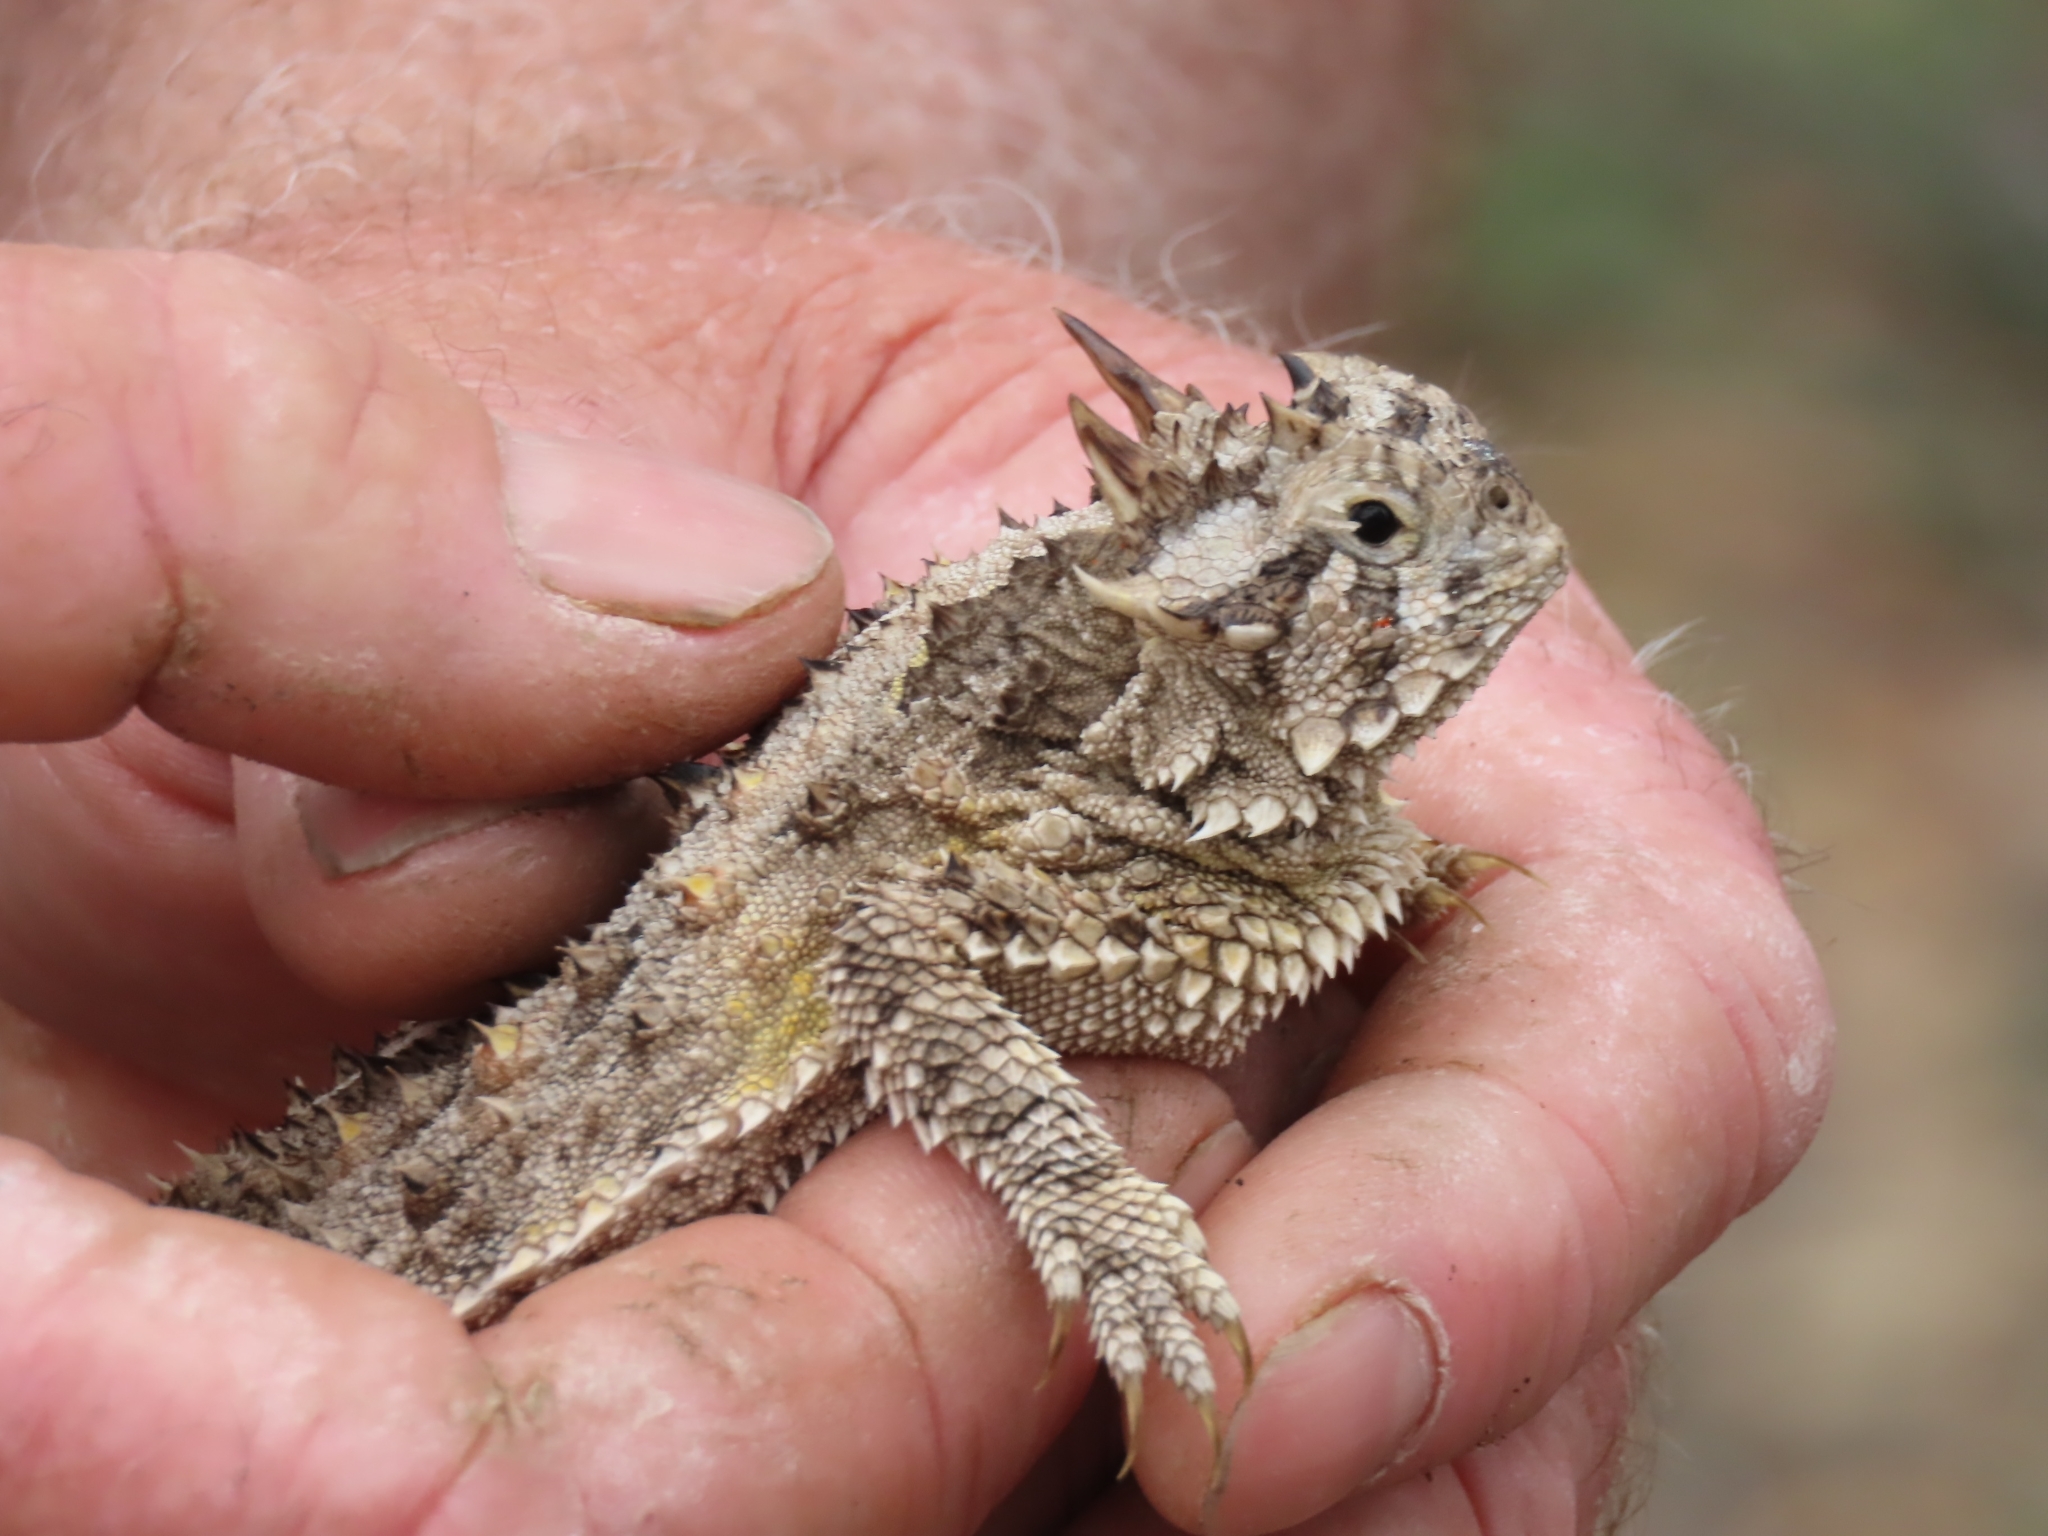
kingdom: Animalia
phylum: Chordata
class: Squamata
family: Phrynosomatidae
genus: Phrynosoma
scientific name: Phrynosoma cornutum
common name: Texas horned lizard
